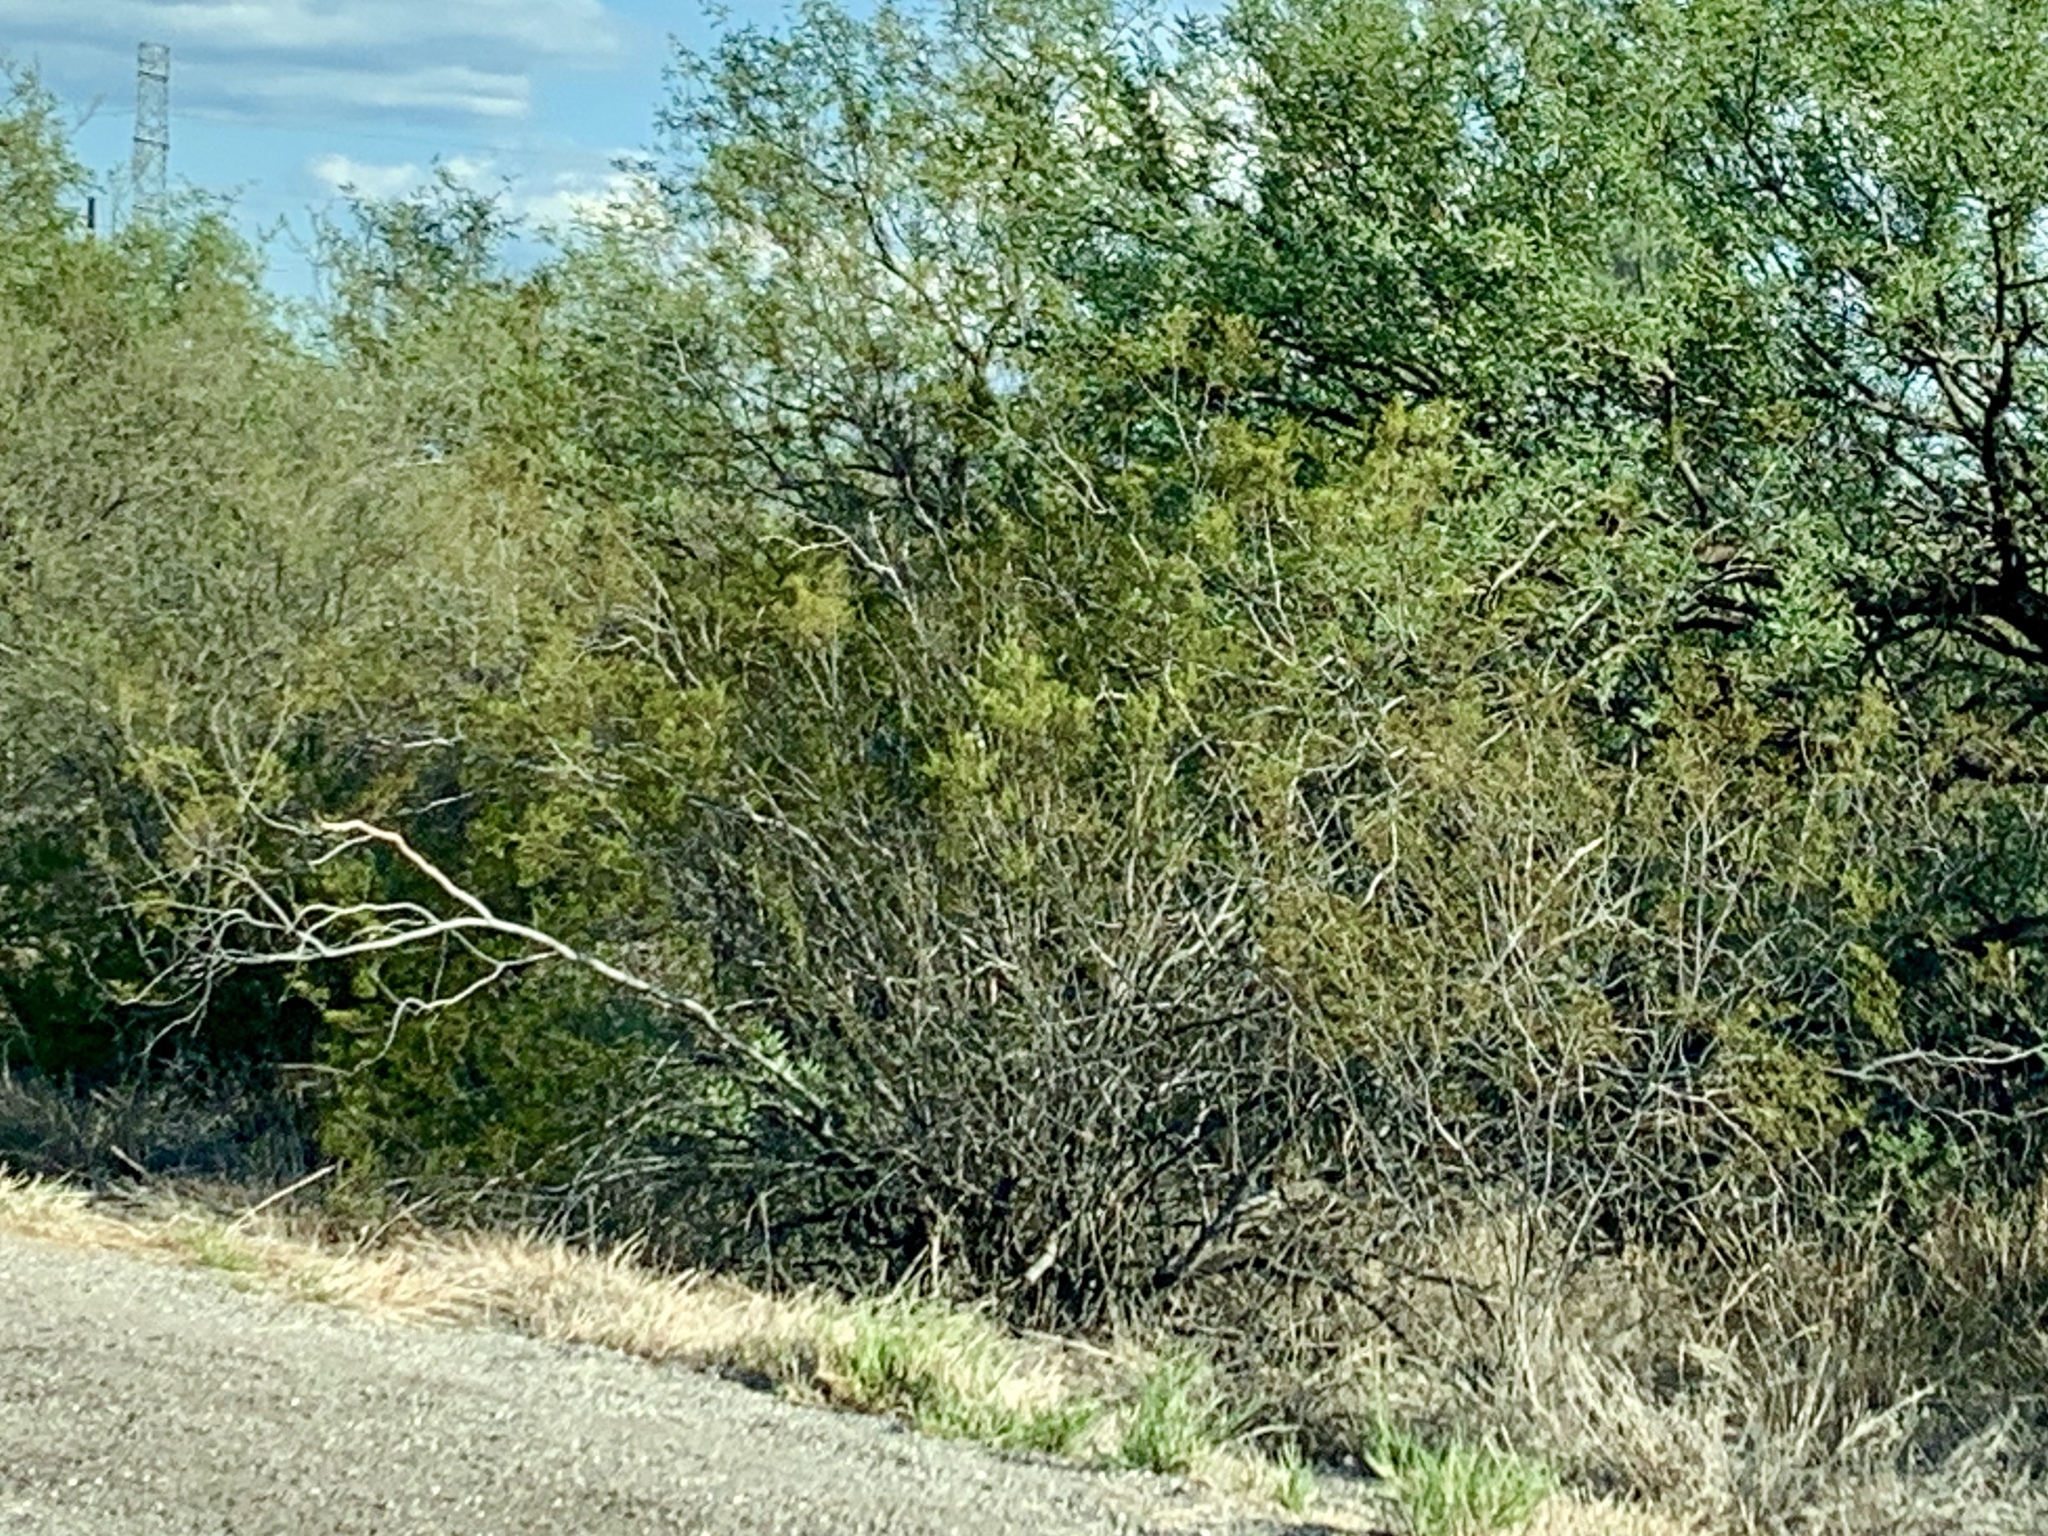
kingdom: Plantae
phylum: Tracheophyta
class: Magnoliopsida
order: Zygophyllales
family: Zygophyllaceae
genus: Larrea
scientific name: Larrea tridentata
